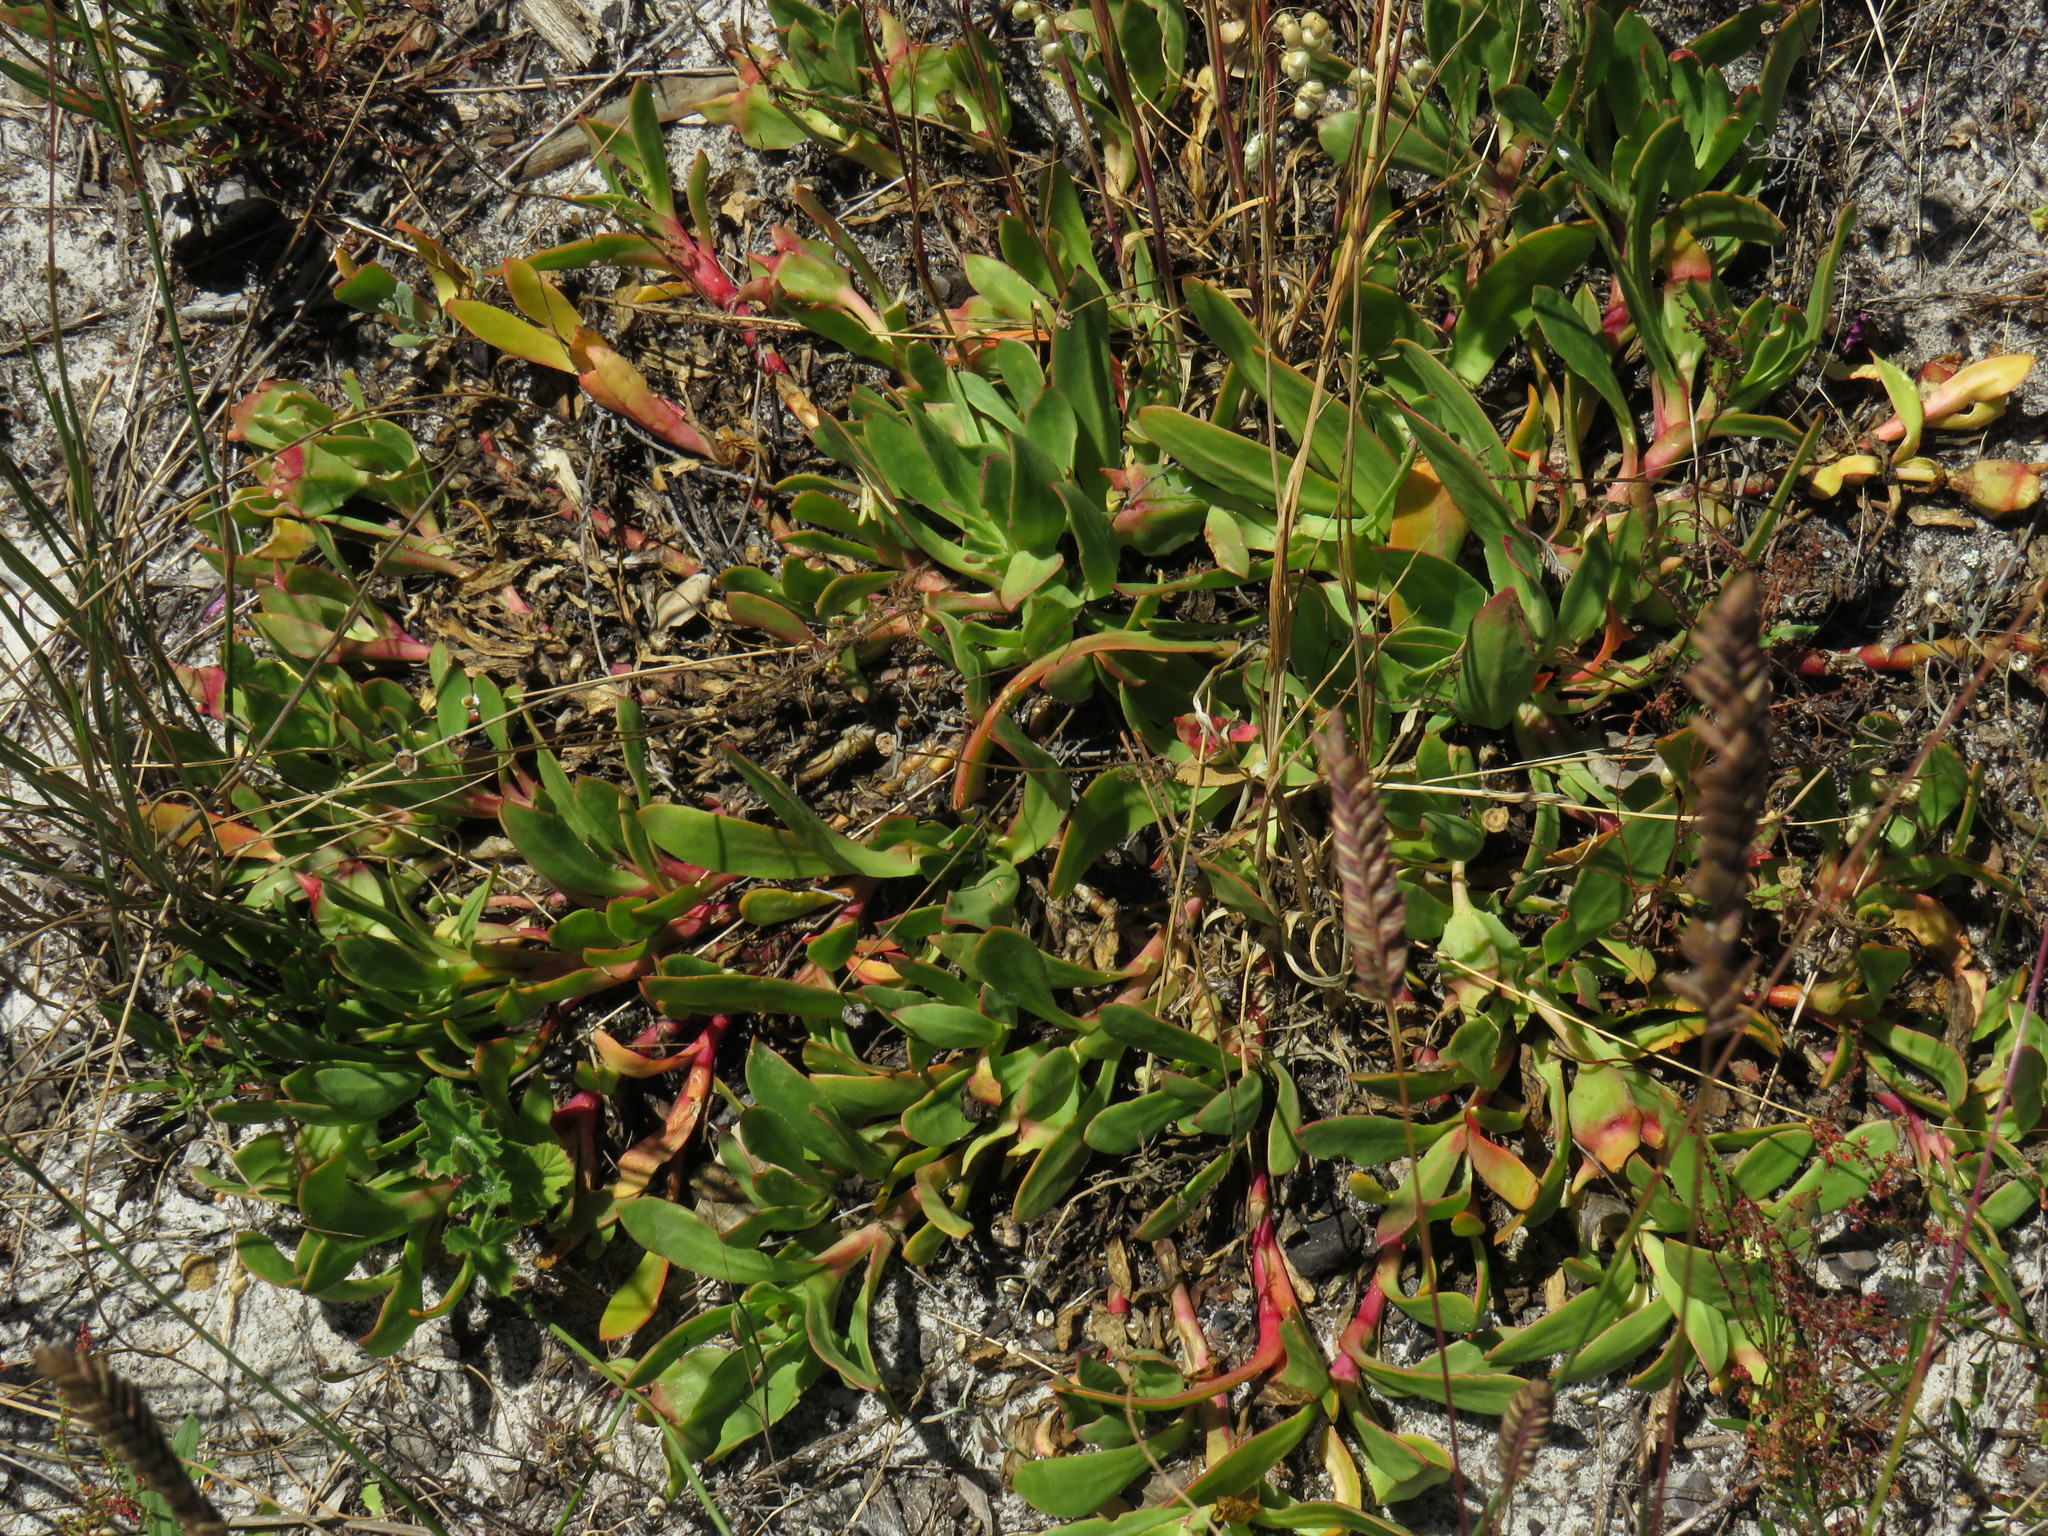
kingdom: Plantae
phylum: Tracheophyta
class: Magnoliopsida
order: Caryophyllales
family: Aizoaceae
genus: Skiatophytum
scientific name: Skiatophytum tripolium
